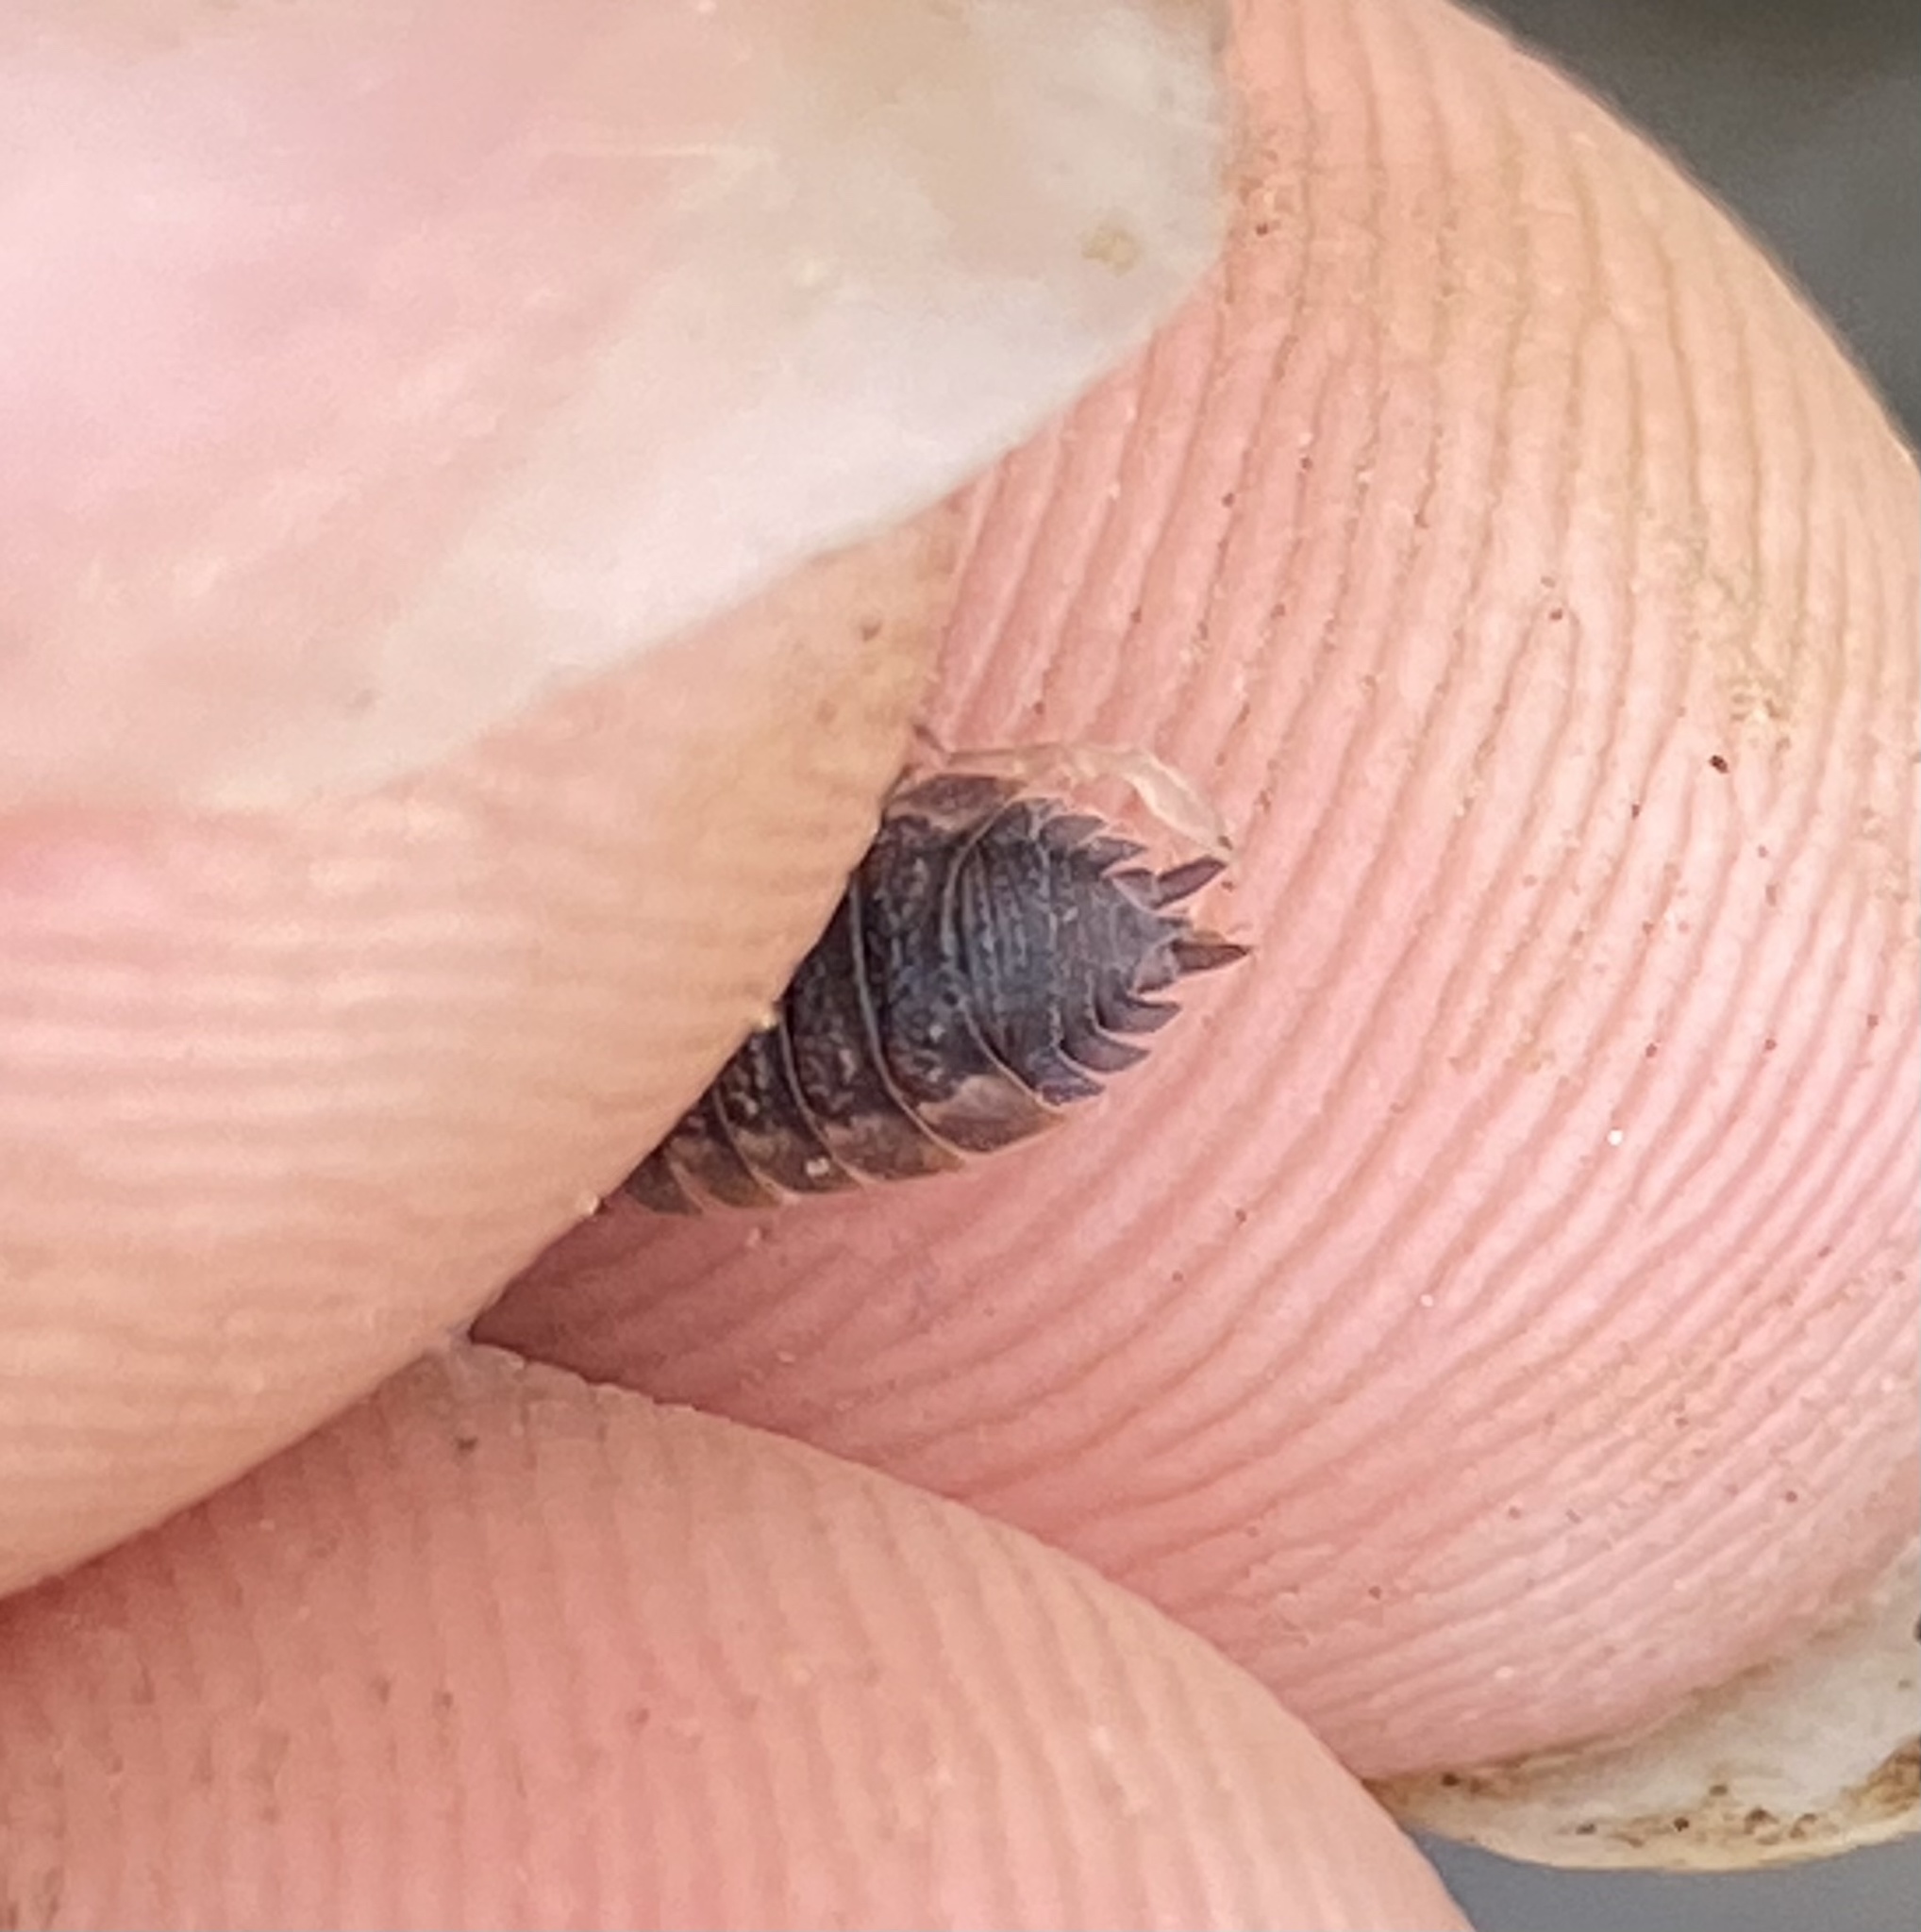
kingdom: Animalia
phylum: Arthropoda
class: Malacostraca
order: Isopoda
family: Porcellionidae
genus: Porcellio
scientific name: Porcellio scaber
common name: Common rough woodlouse
